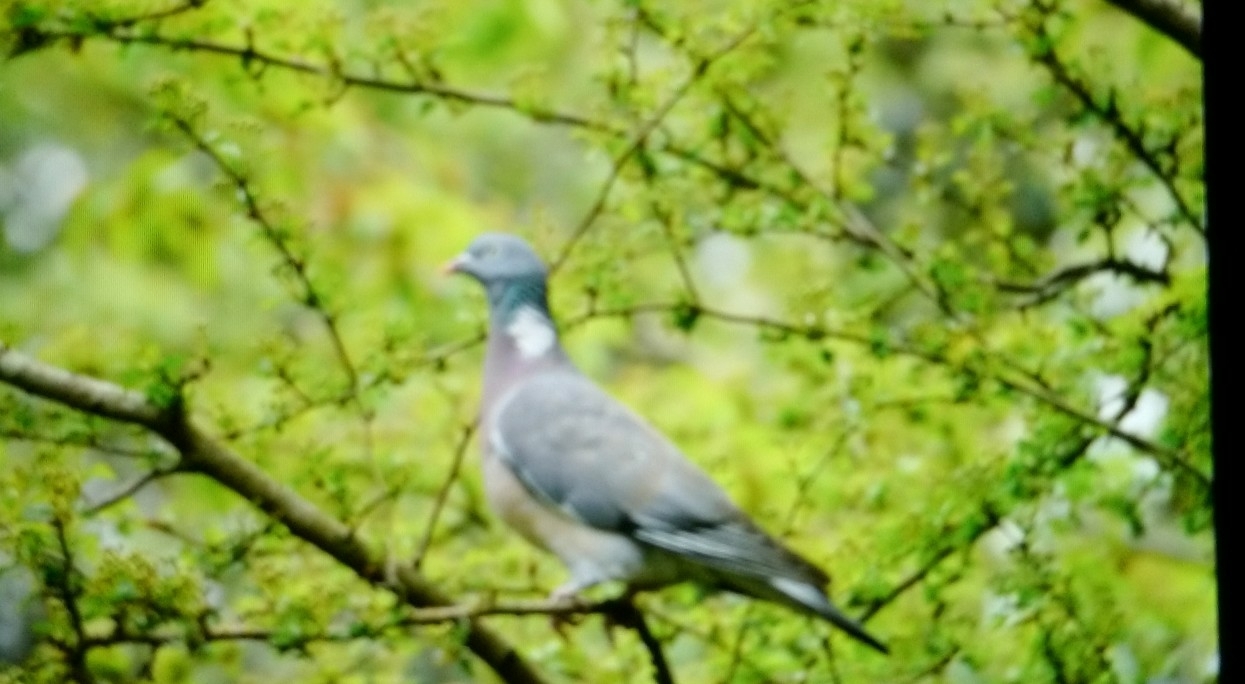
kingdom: Animalia
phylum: Chordata
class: Aves
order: Columbiformes
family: Columbidae
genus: Columba
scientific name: Columba palumbus
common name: Common wood pigeon
